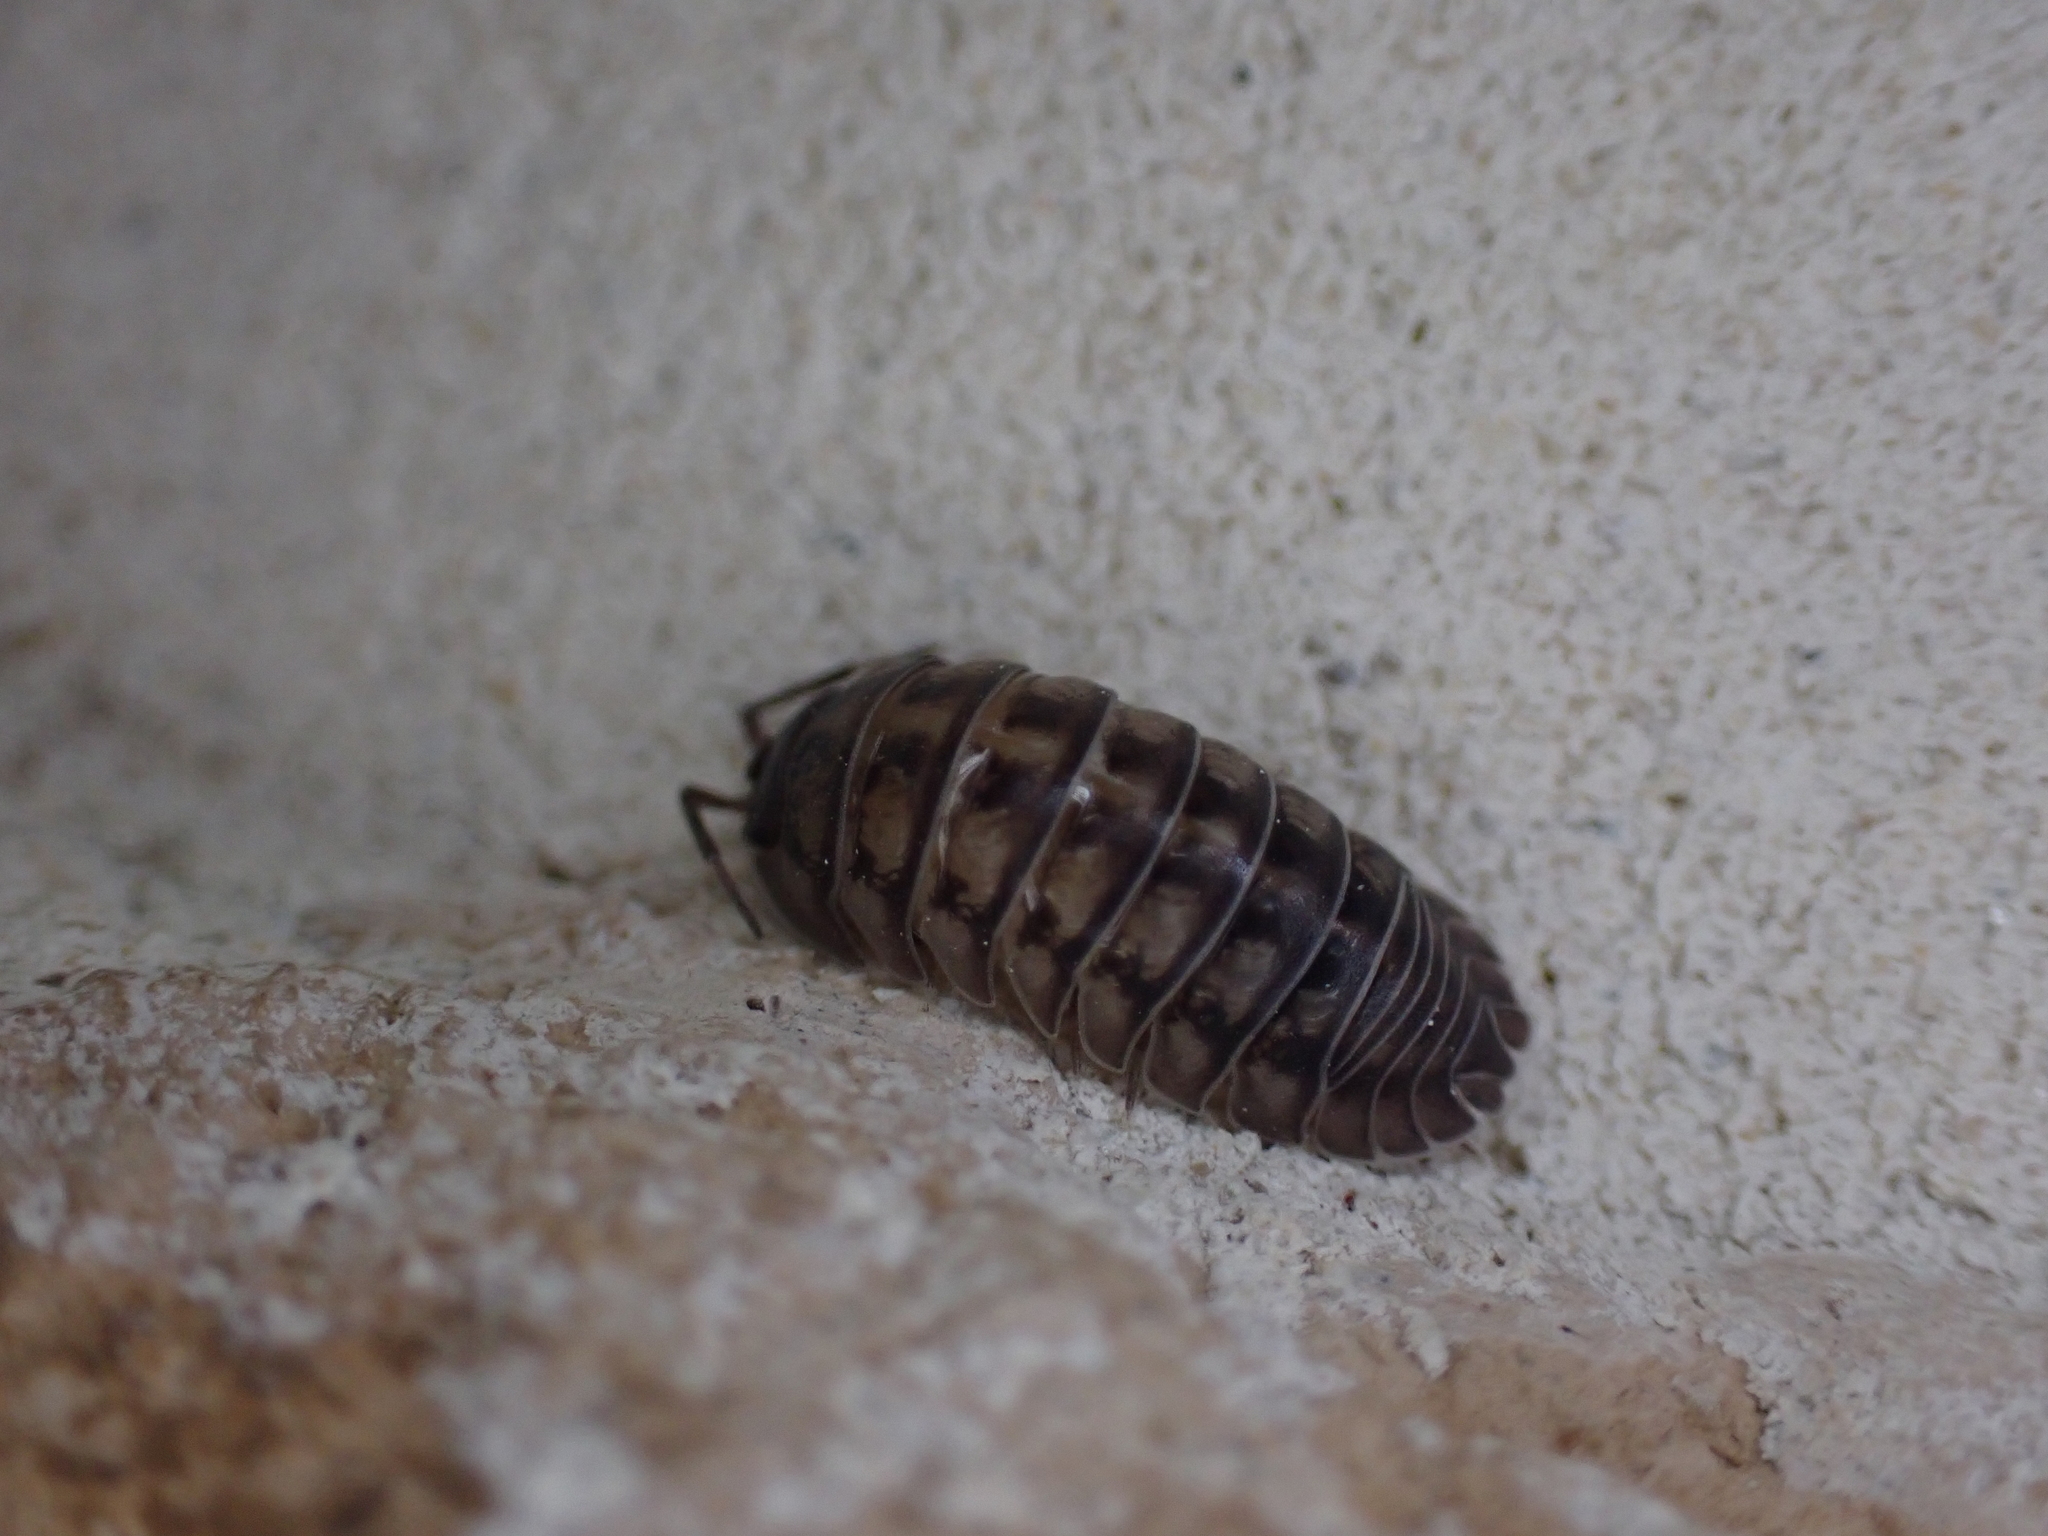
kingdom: Animalia
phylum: Arthropoda
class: Malacostraca
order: Isopoda
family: Armadillidiidae
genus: Armadillidium
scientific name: Armadillidium nasatum
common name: Isopod
